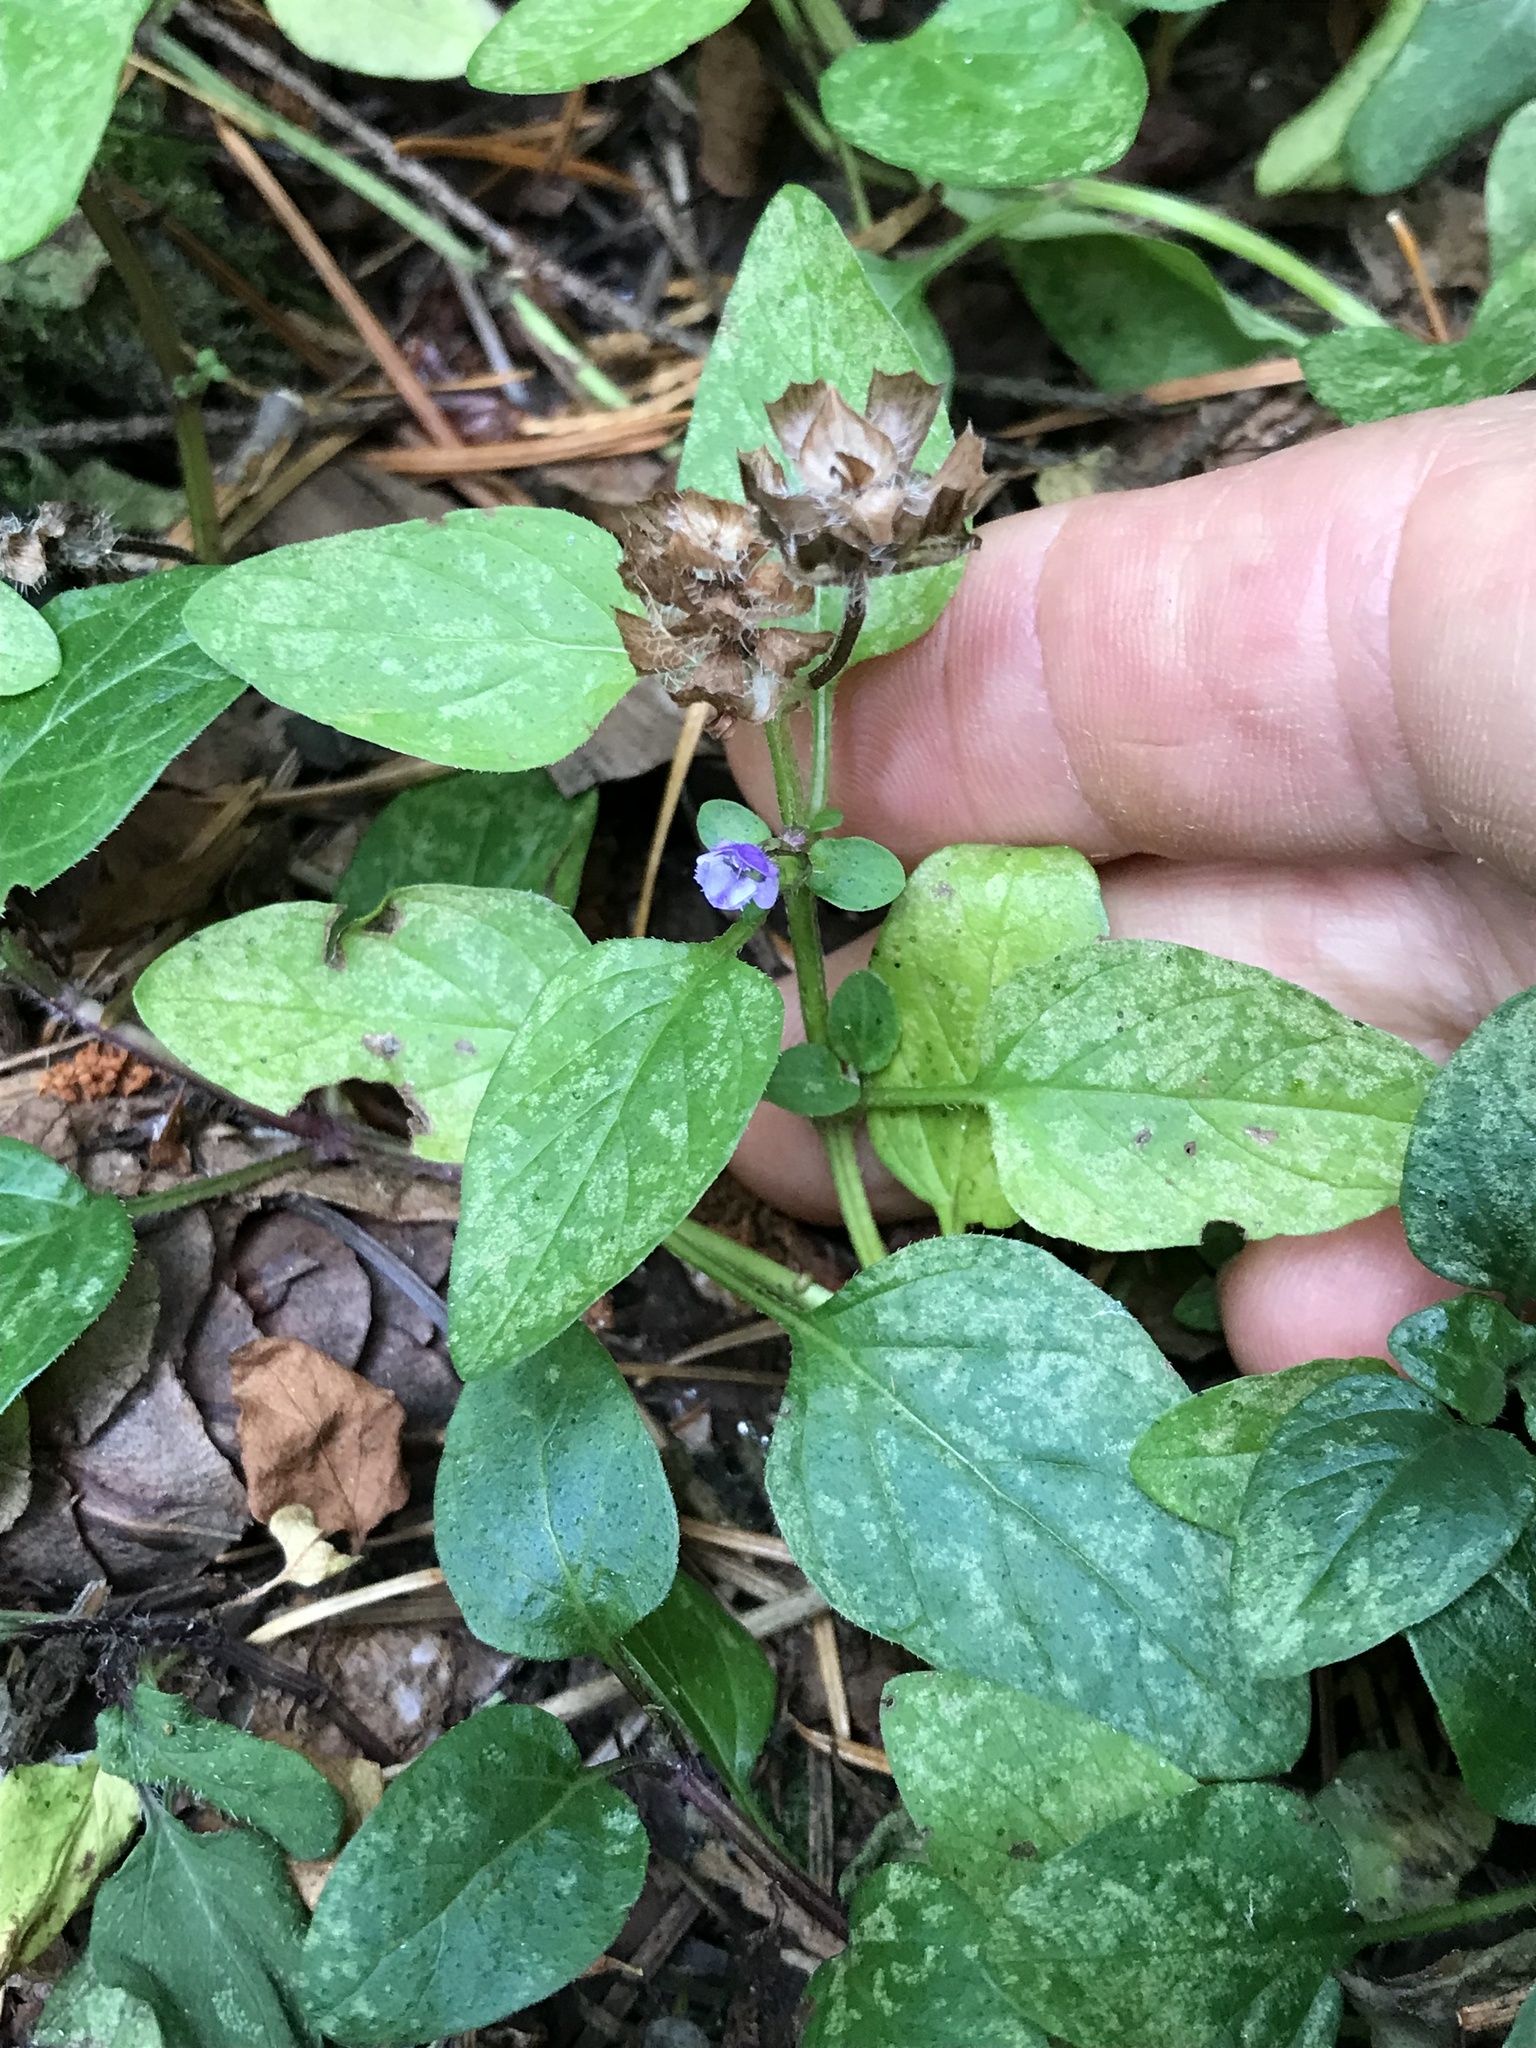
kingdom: Plantae
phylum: Tracheophyta
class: Magnoliopsida
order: Lamiales
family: Lamiaceae
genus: Prunella
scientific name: Prunella vulgaris
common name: Heal-all
